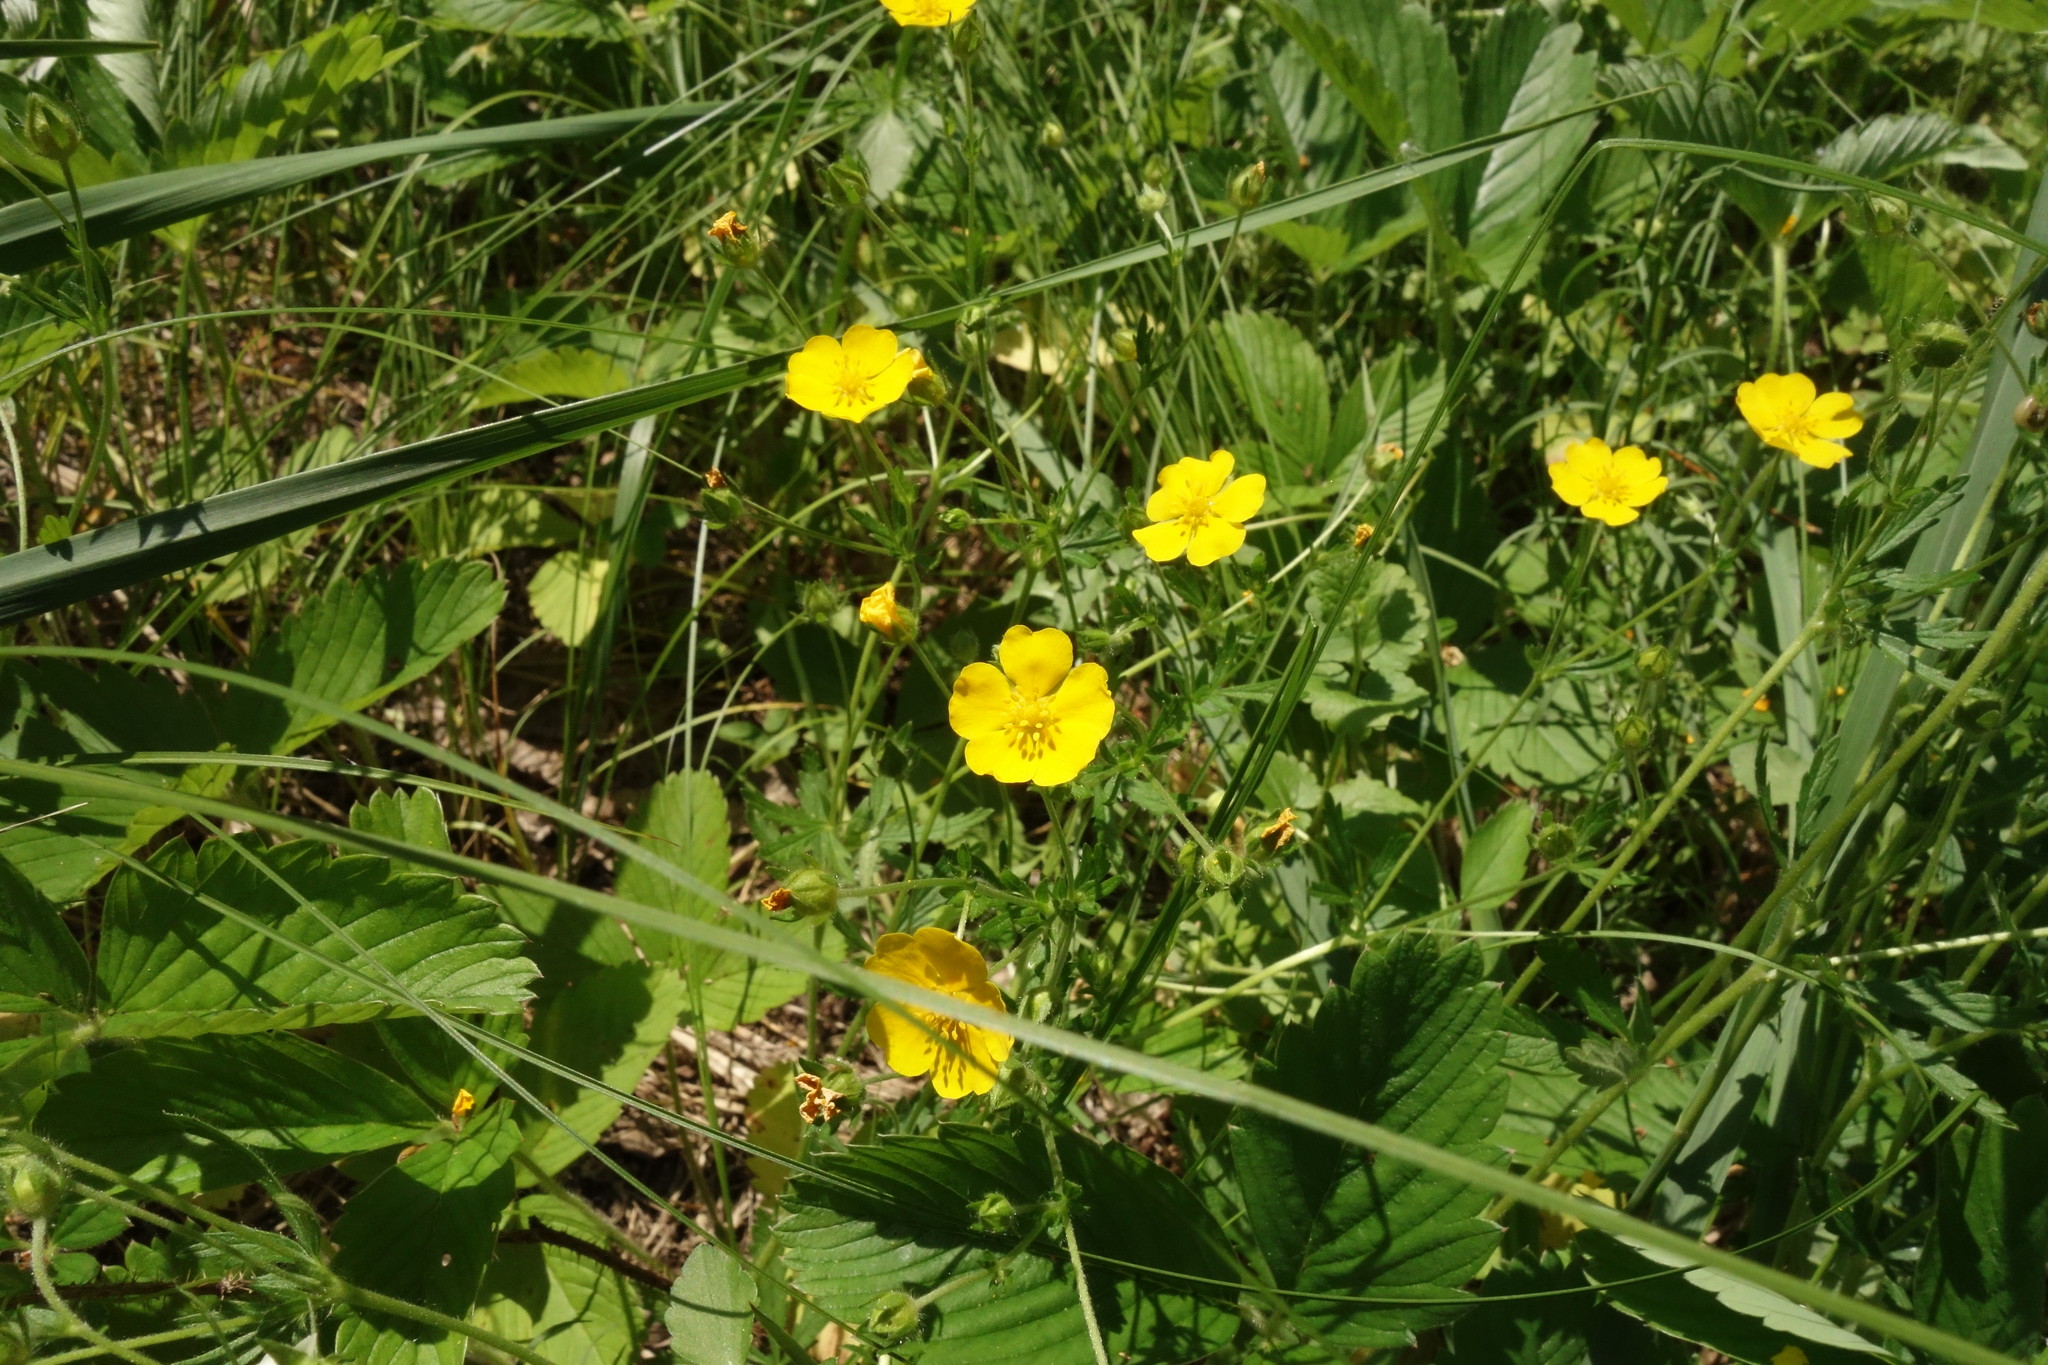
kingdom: Plantae
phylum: Tracheophyta
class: Magnoliopsida
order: Rosales
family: Rosaceae
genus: Potentilla
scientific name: Potentilla thuringiaca
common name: European cinquefoil
